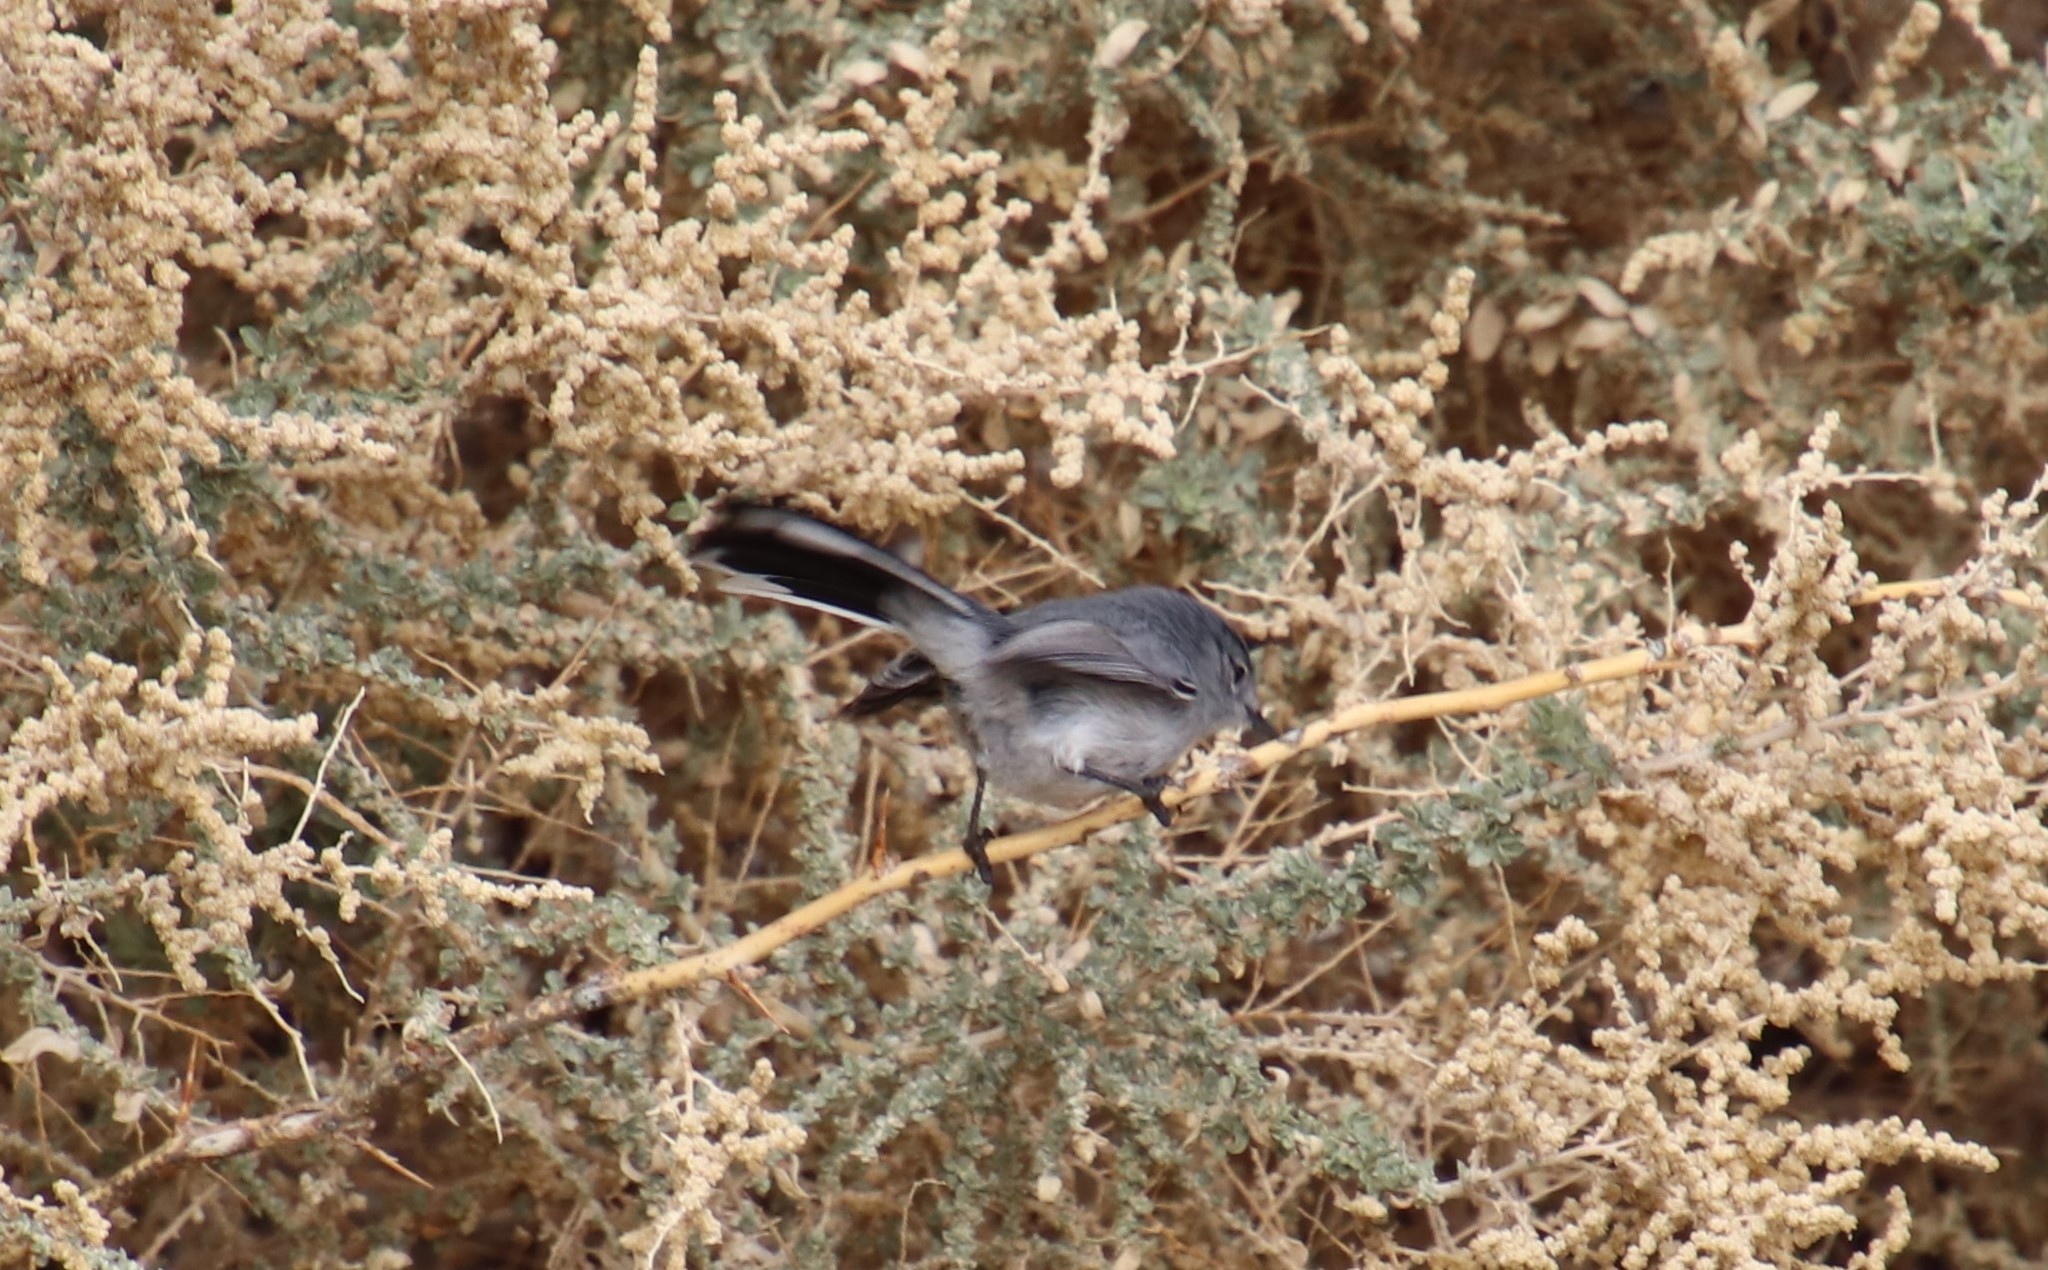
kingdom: Animalia
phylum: Chordata
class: Aves
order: Passeriformes
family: Polioptilidae
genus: Polioptila
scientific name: Polioptila melanura
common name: Black-tailed gnatcatcher
